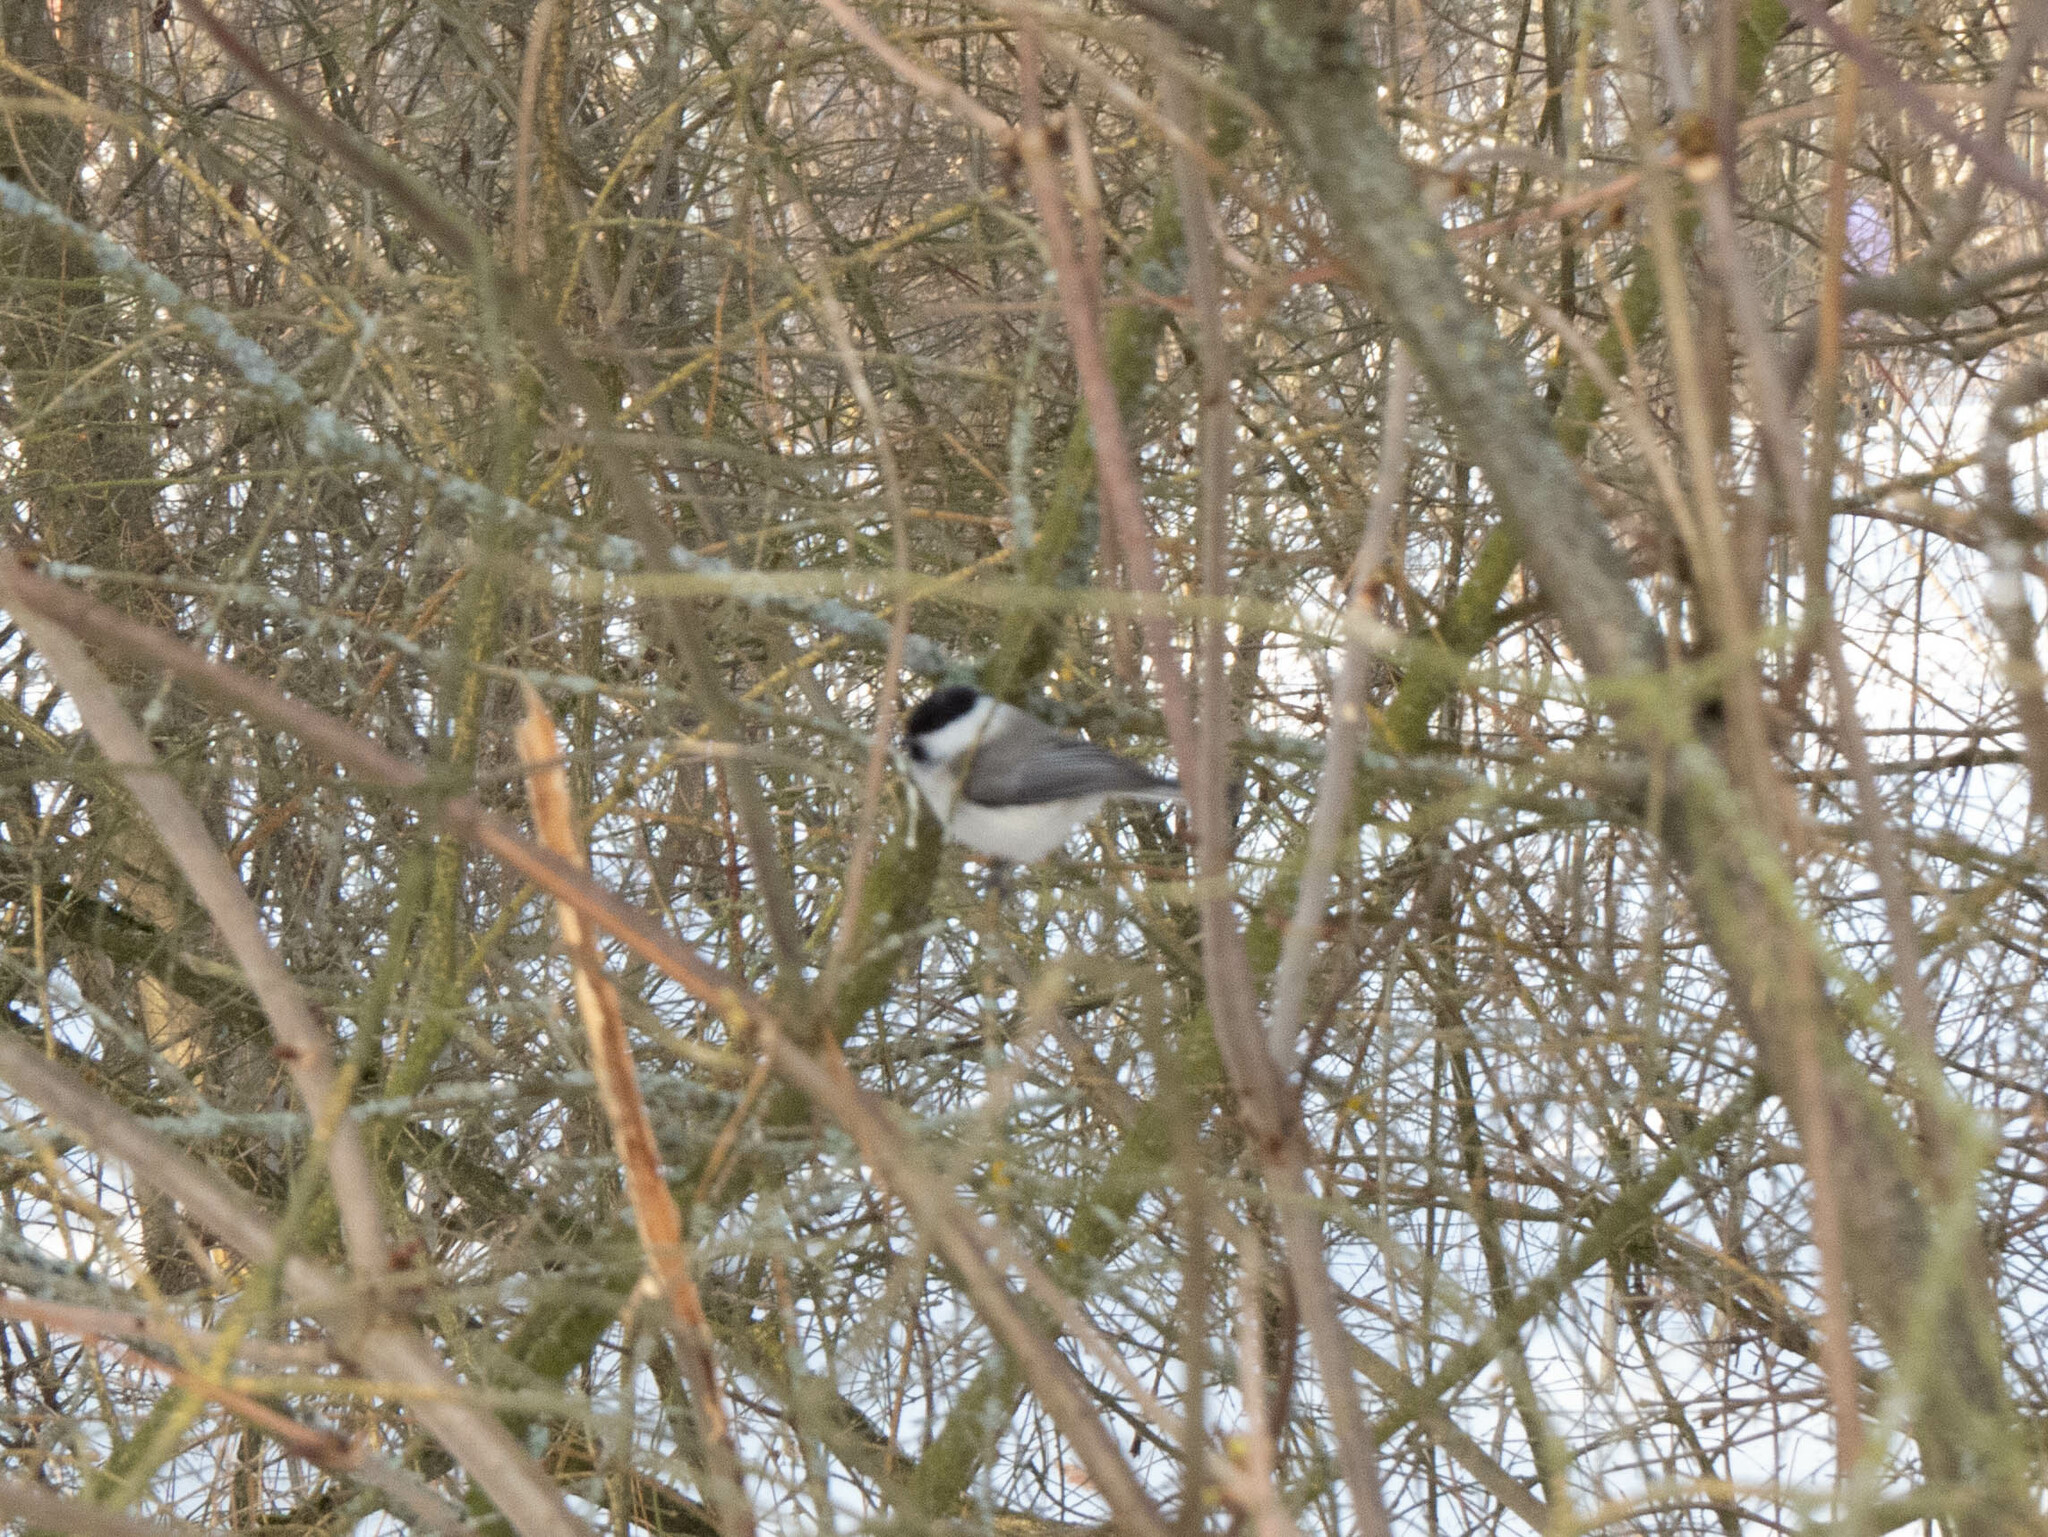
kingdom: Animalia
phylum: Chordata
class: Aves
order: Passeriformes
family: Paridae
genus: Poecile
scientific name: Poecile montanus
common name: Willow tit
